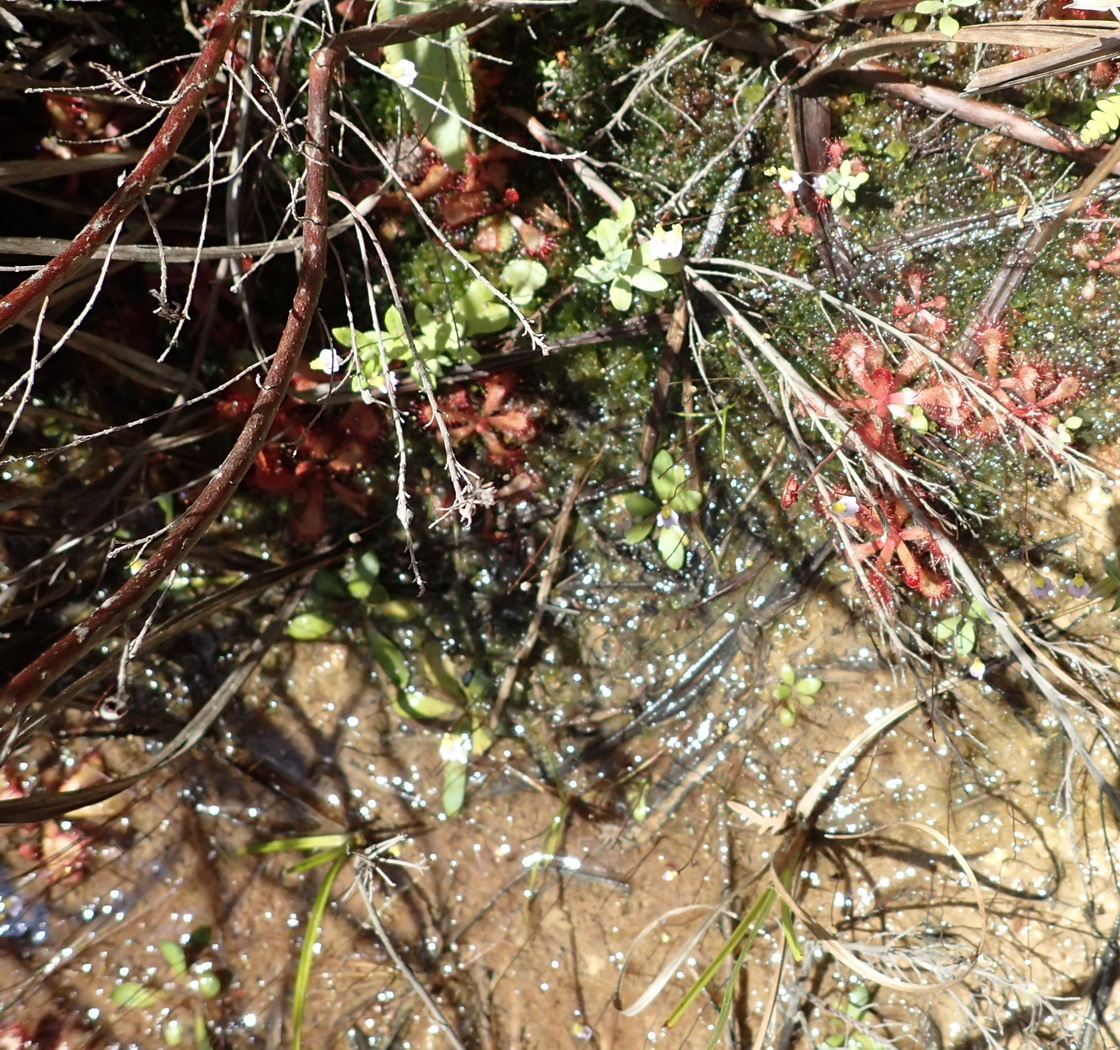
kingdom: Plantae
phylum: Tracheophyta
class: Magnoliopsida
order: Lamiales
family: Lentibulariaceae
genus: Utricularia
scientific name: Utricularia bisquamata
